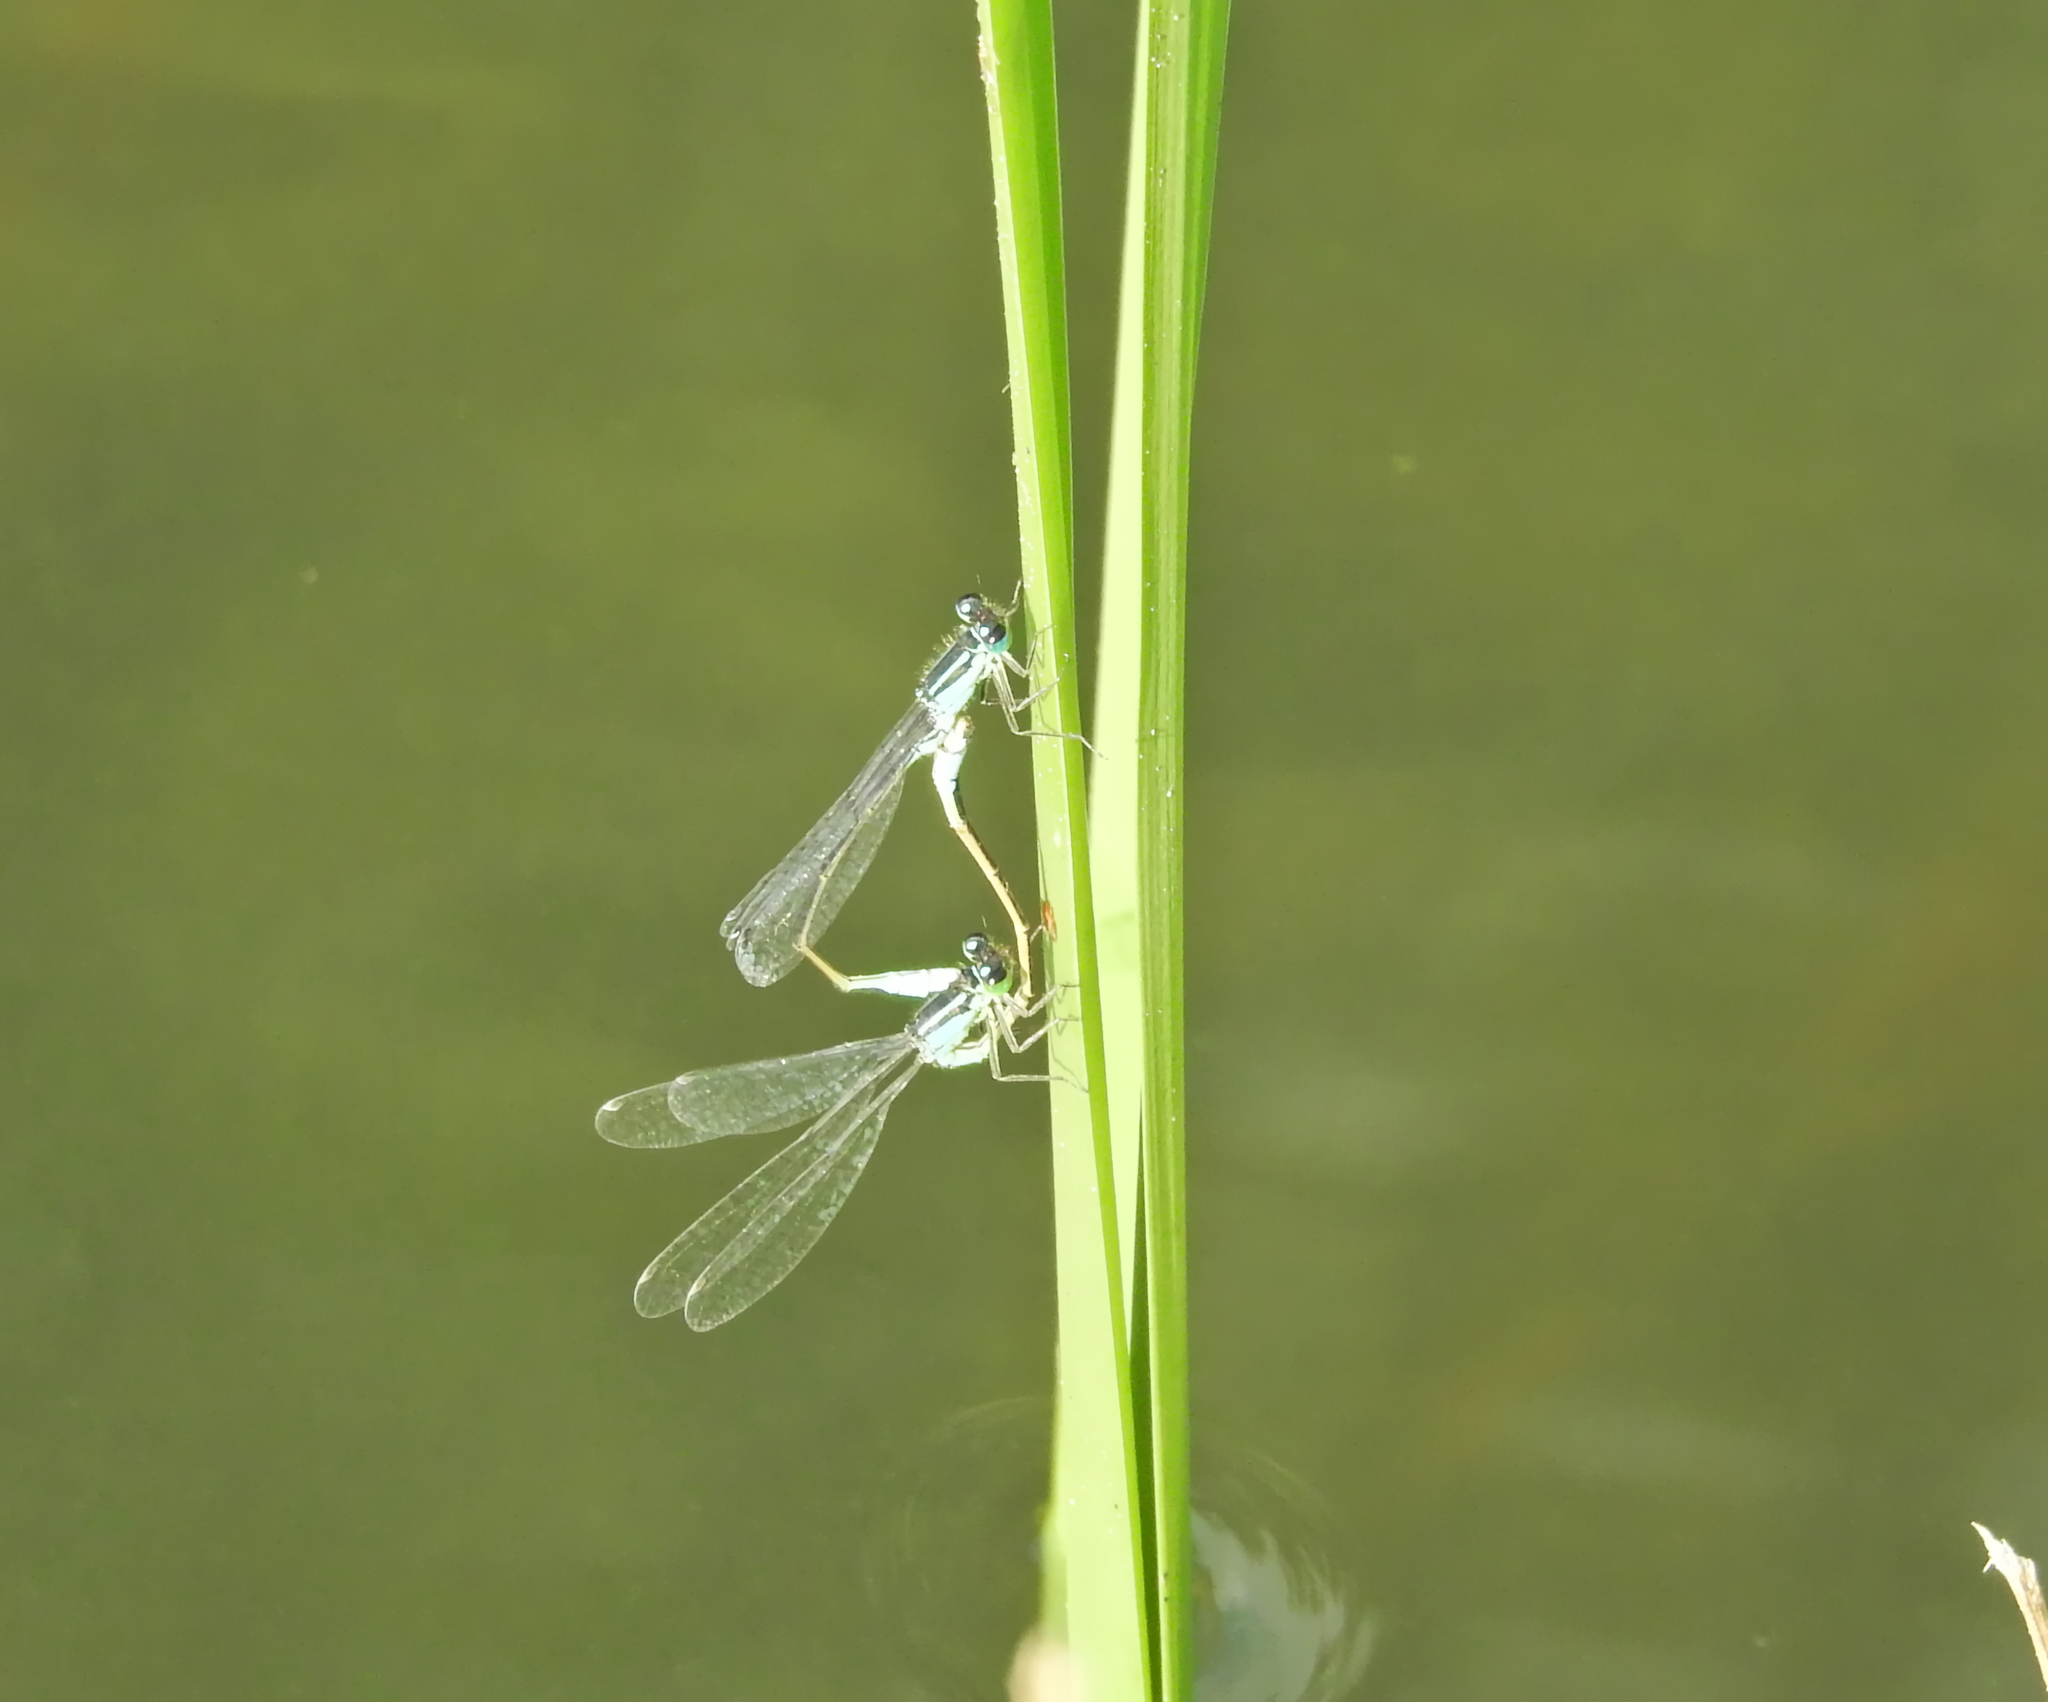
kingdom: Animalia
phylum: Arthropoda
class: Insecta
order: Odonata
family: Coenagrionidae
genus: Ischnura
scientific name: Ischnura elegans
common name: Blue-tailed damselfly
